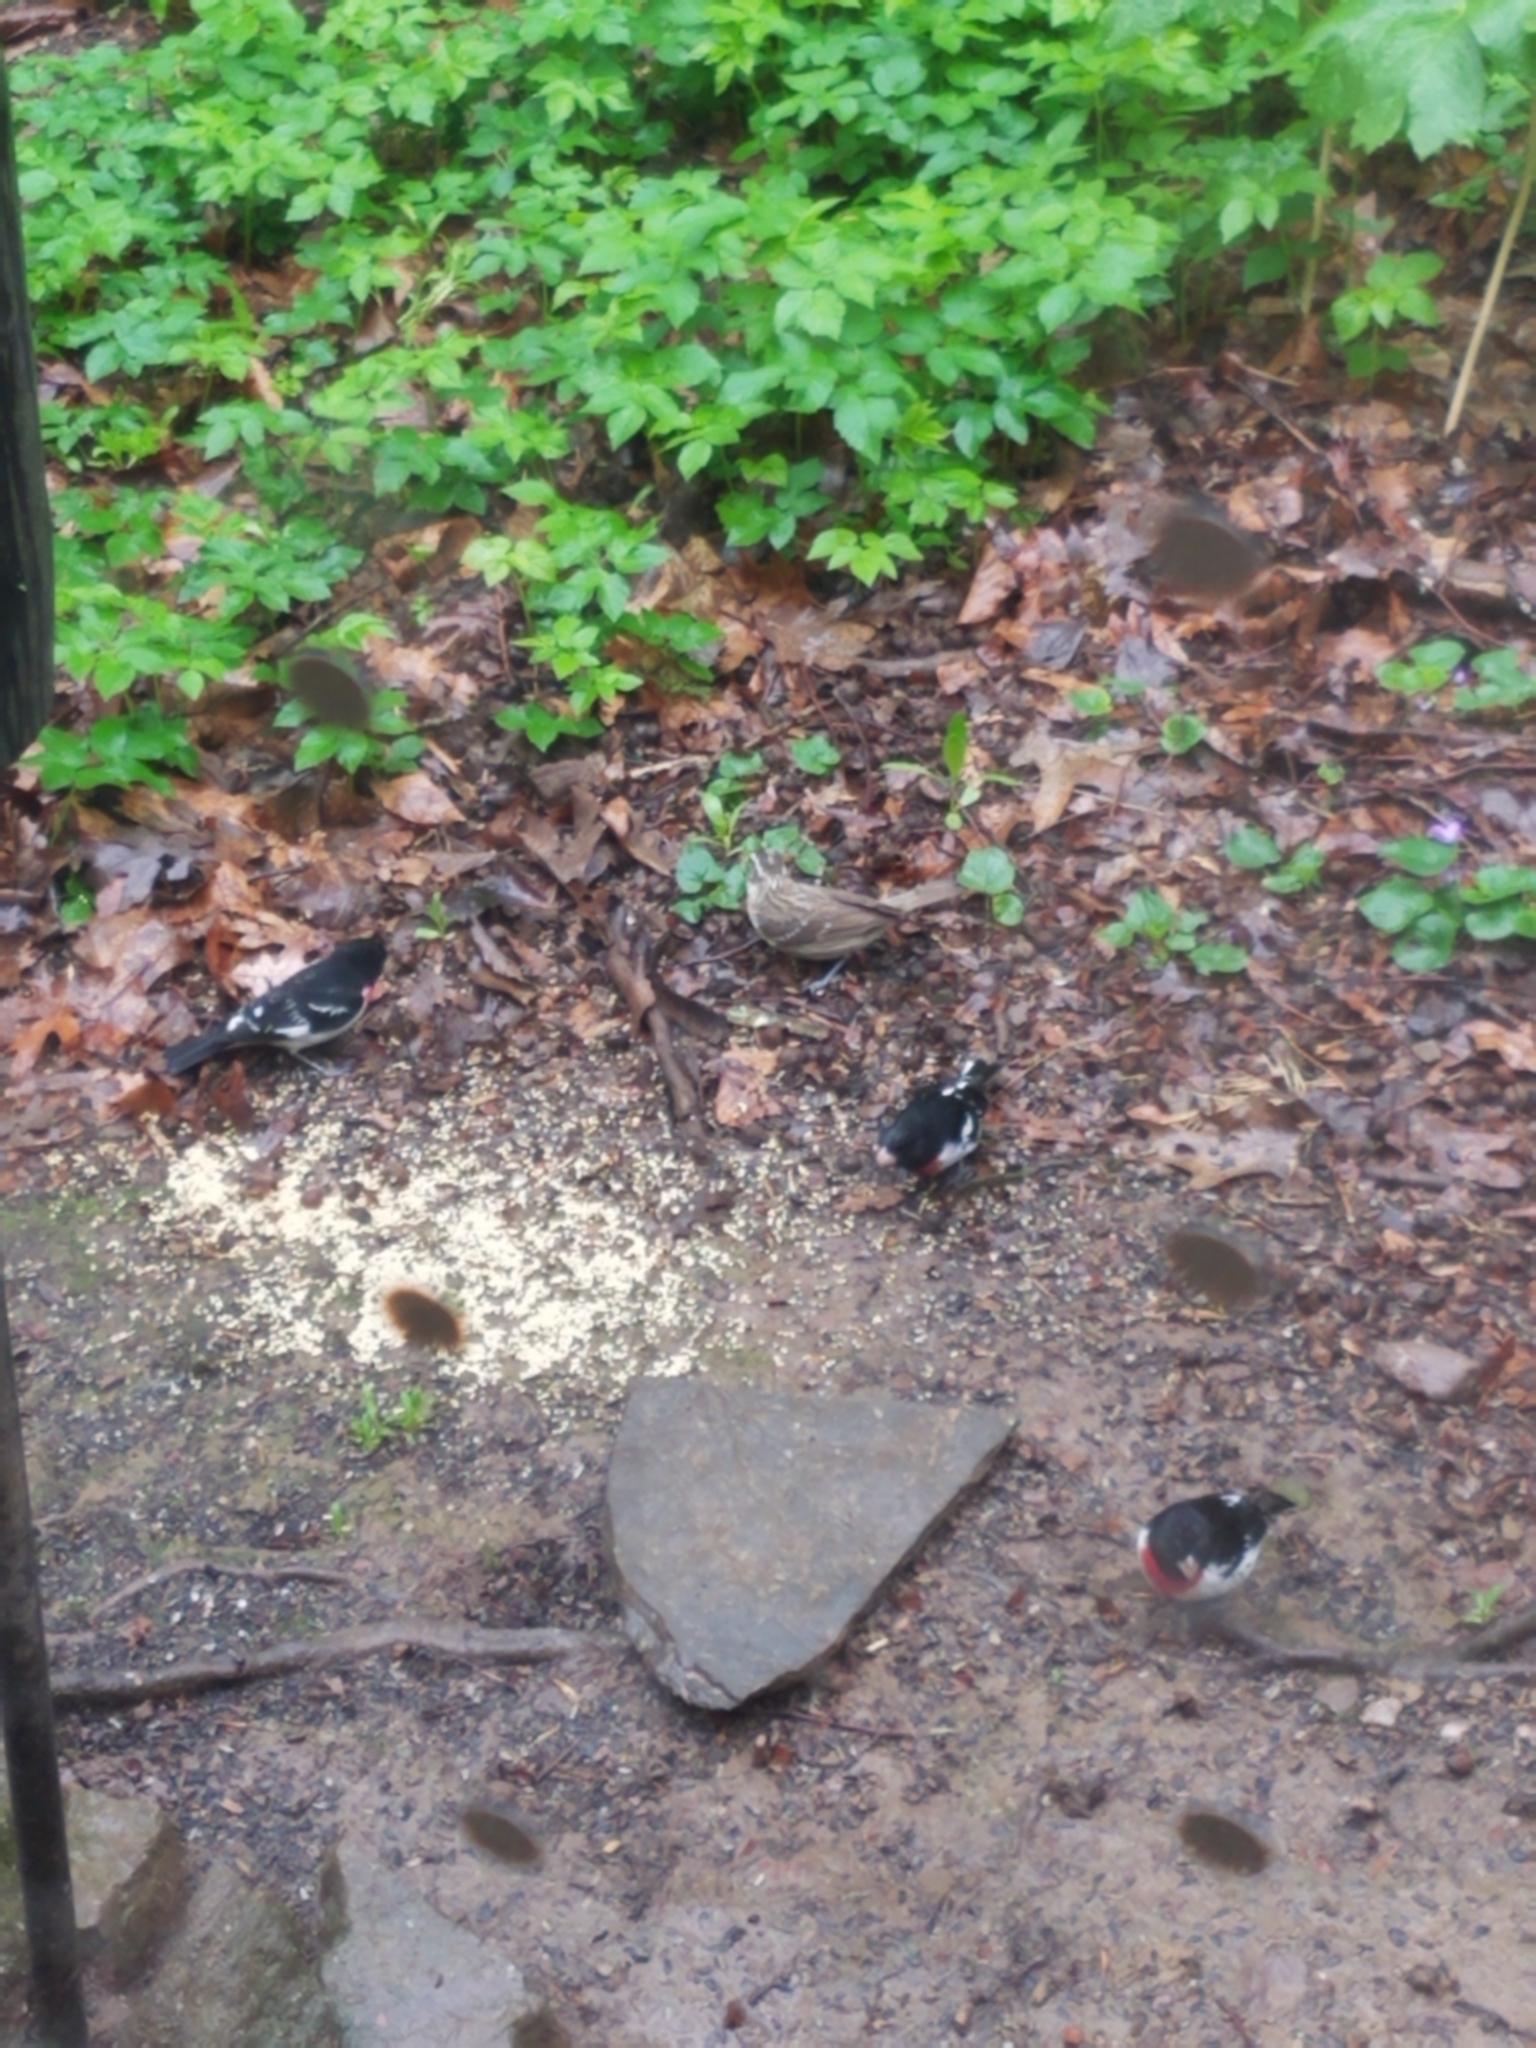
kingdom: Animalia
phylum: Chordata
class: Aves
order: Passeriformes
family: Cardinalidae
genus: Pheucticus
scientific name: Pheucticus ludovicianus
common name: Rose-breasted grosbeak
